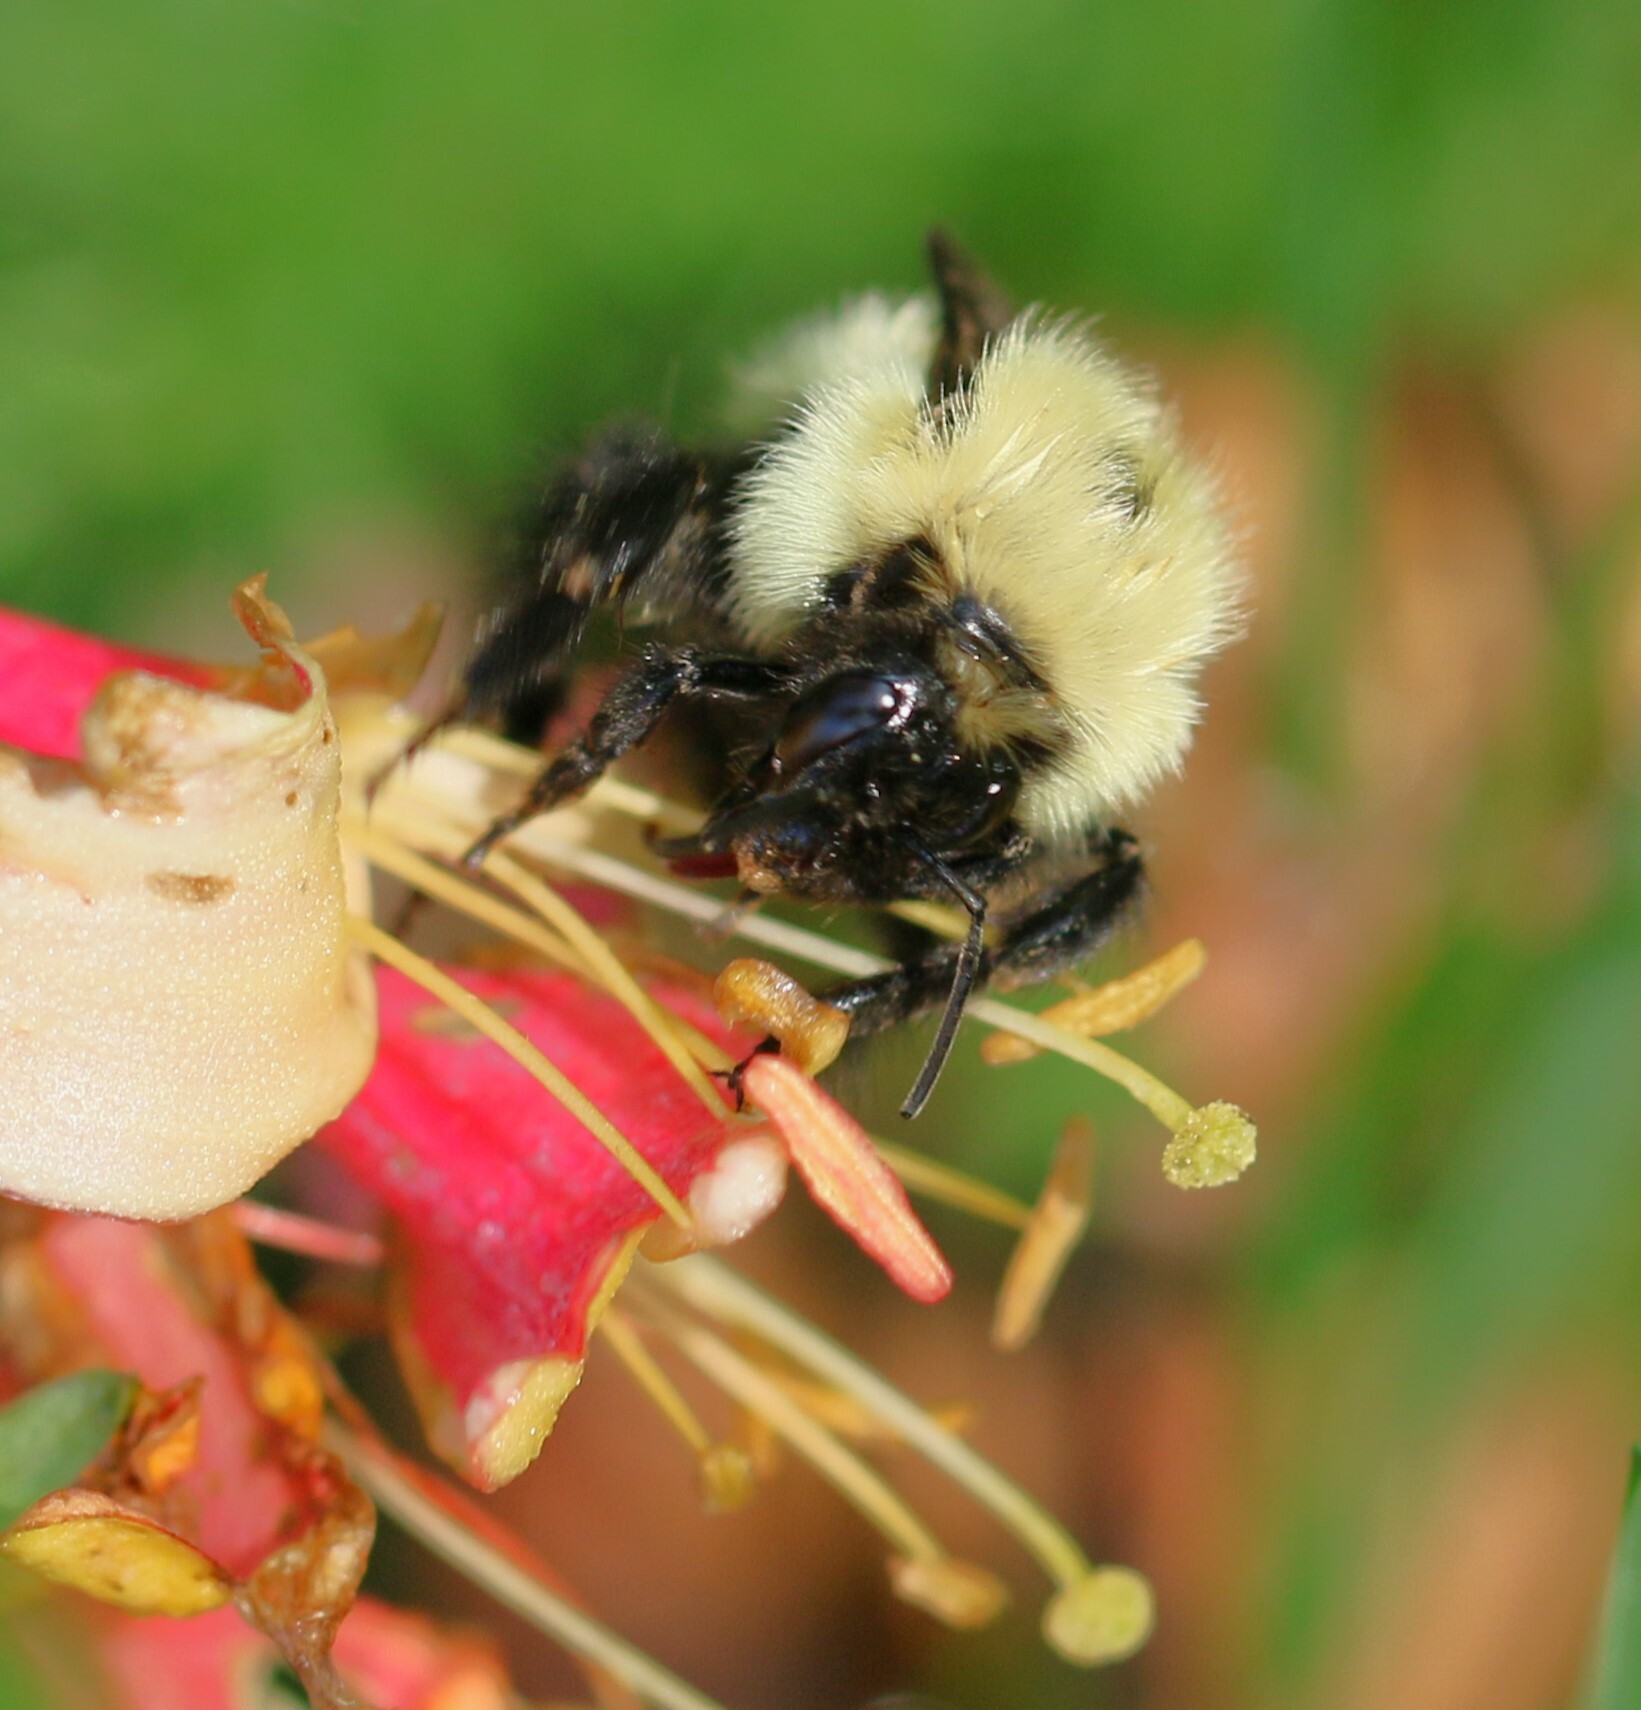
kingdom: Animalia
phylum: Arthropoda
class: Insecta
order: Hymenoptera
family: Apidae
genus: Bombus
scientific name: Bombus vagans
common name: Half-black bumble bee
